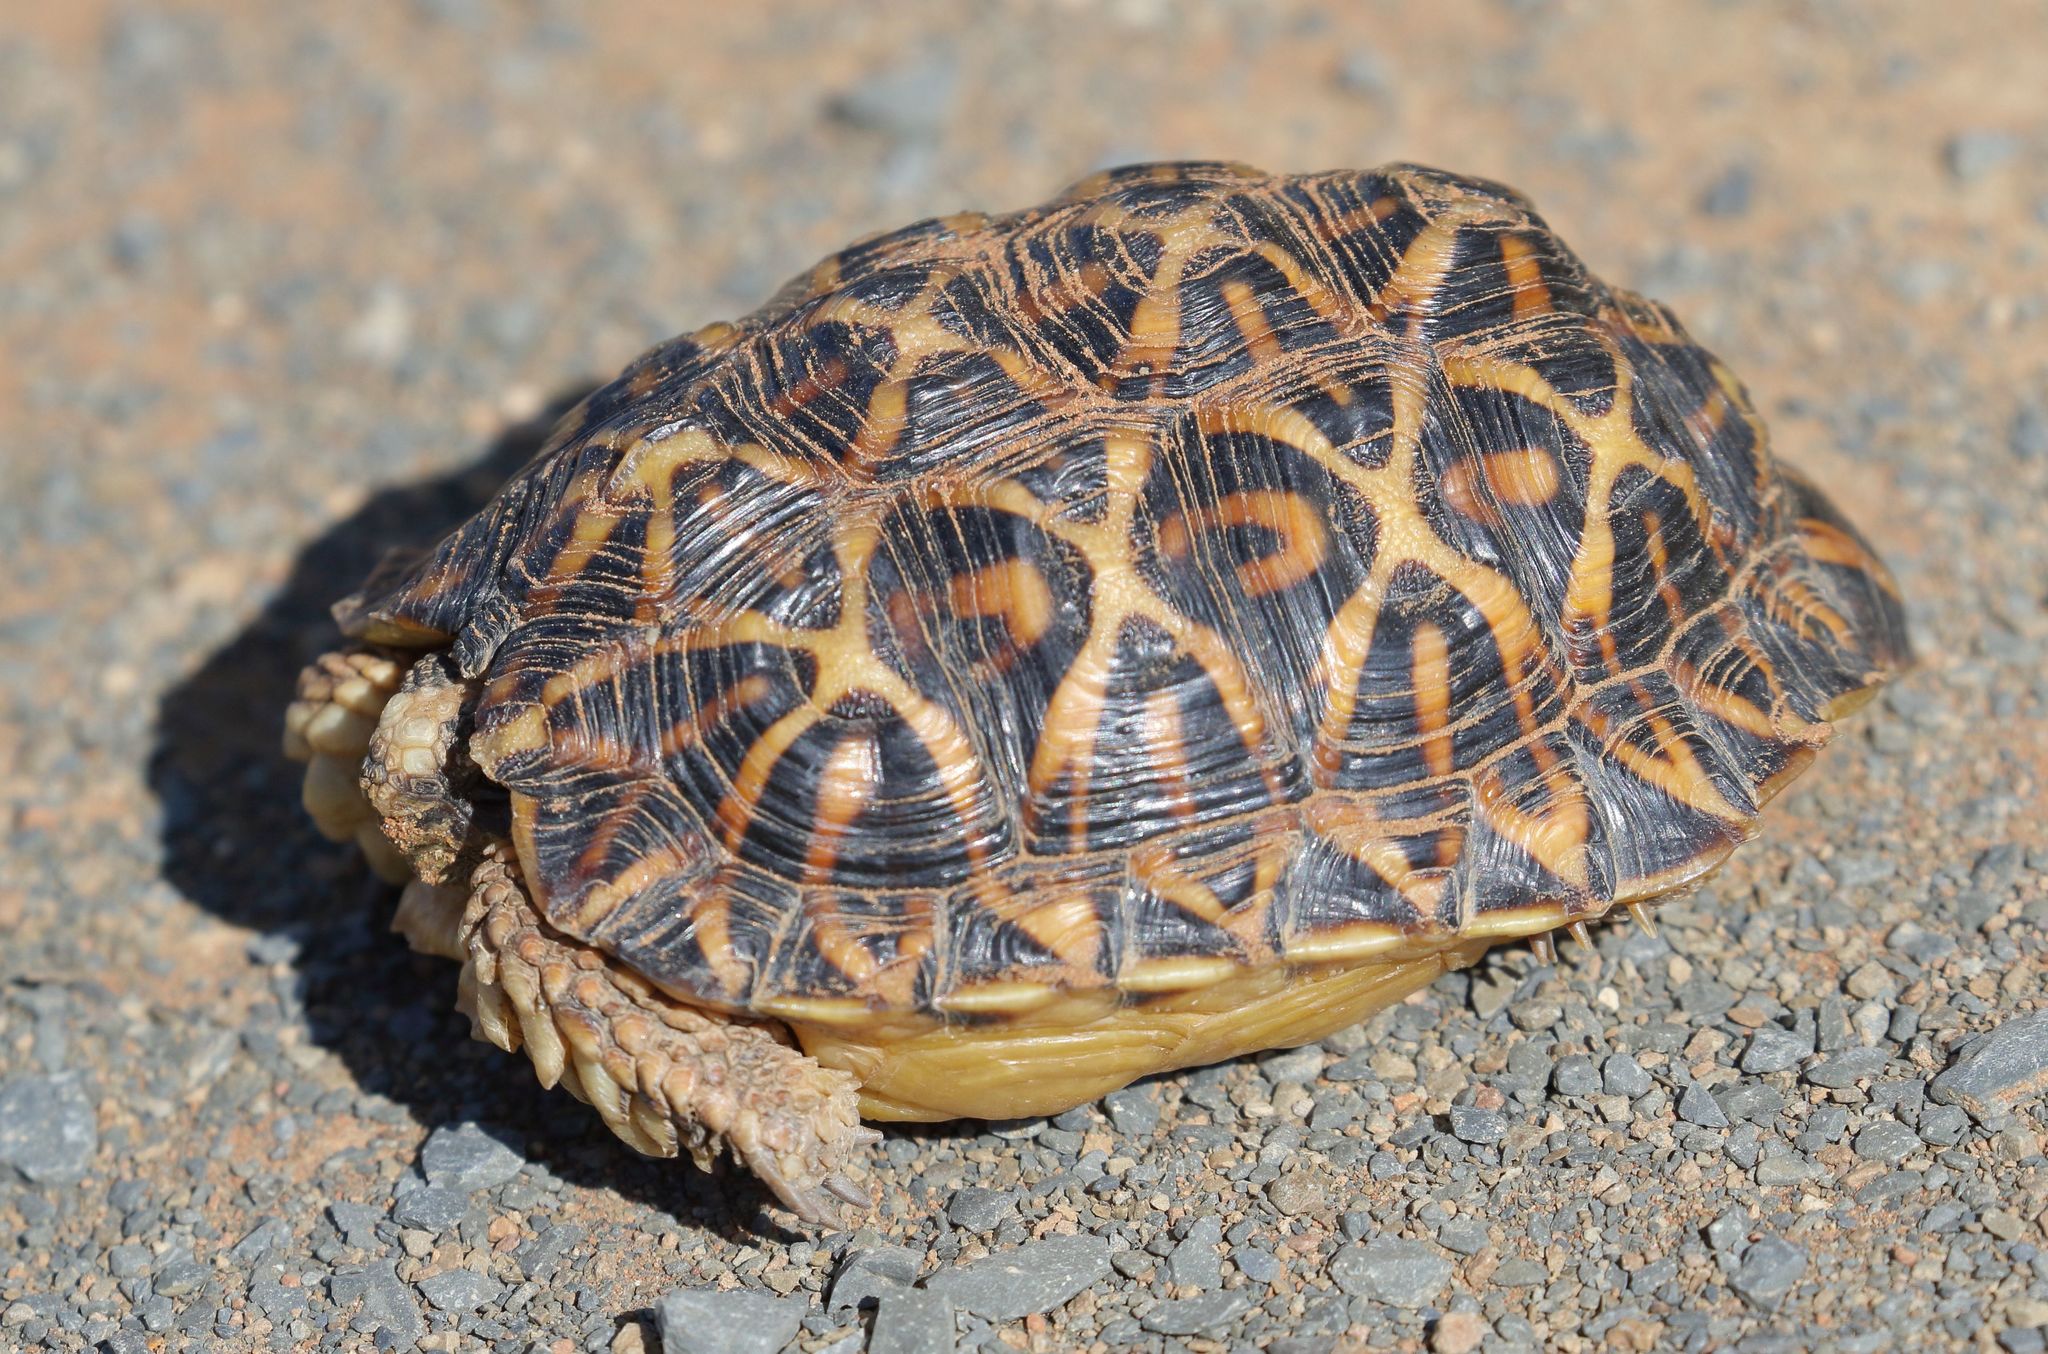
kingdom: Animalia
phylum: Chordata
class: Testudines
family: Testudinidae
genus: Psammobates
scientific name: Psammobates tentorius
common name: Tent tortoise
